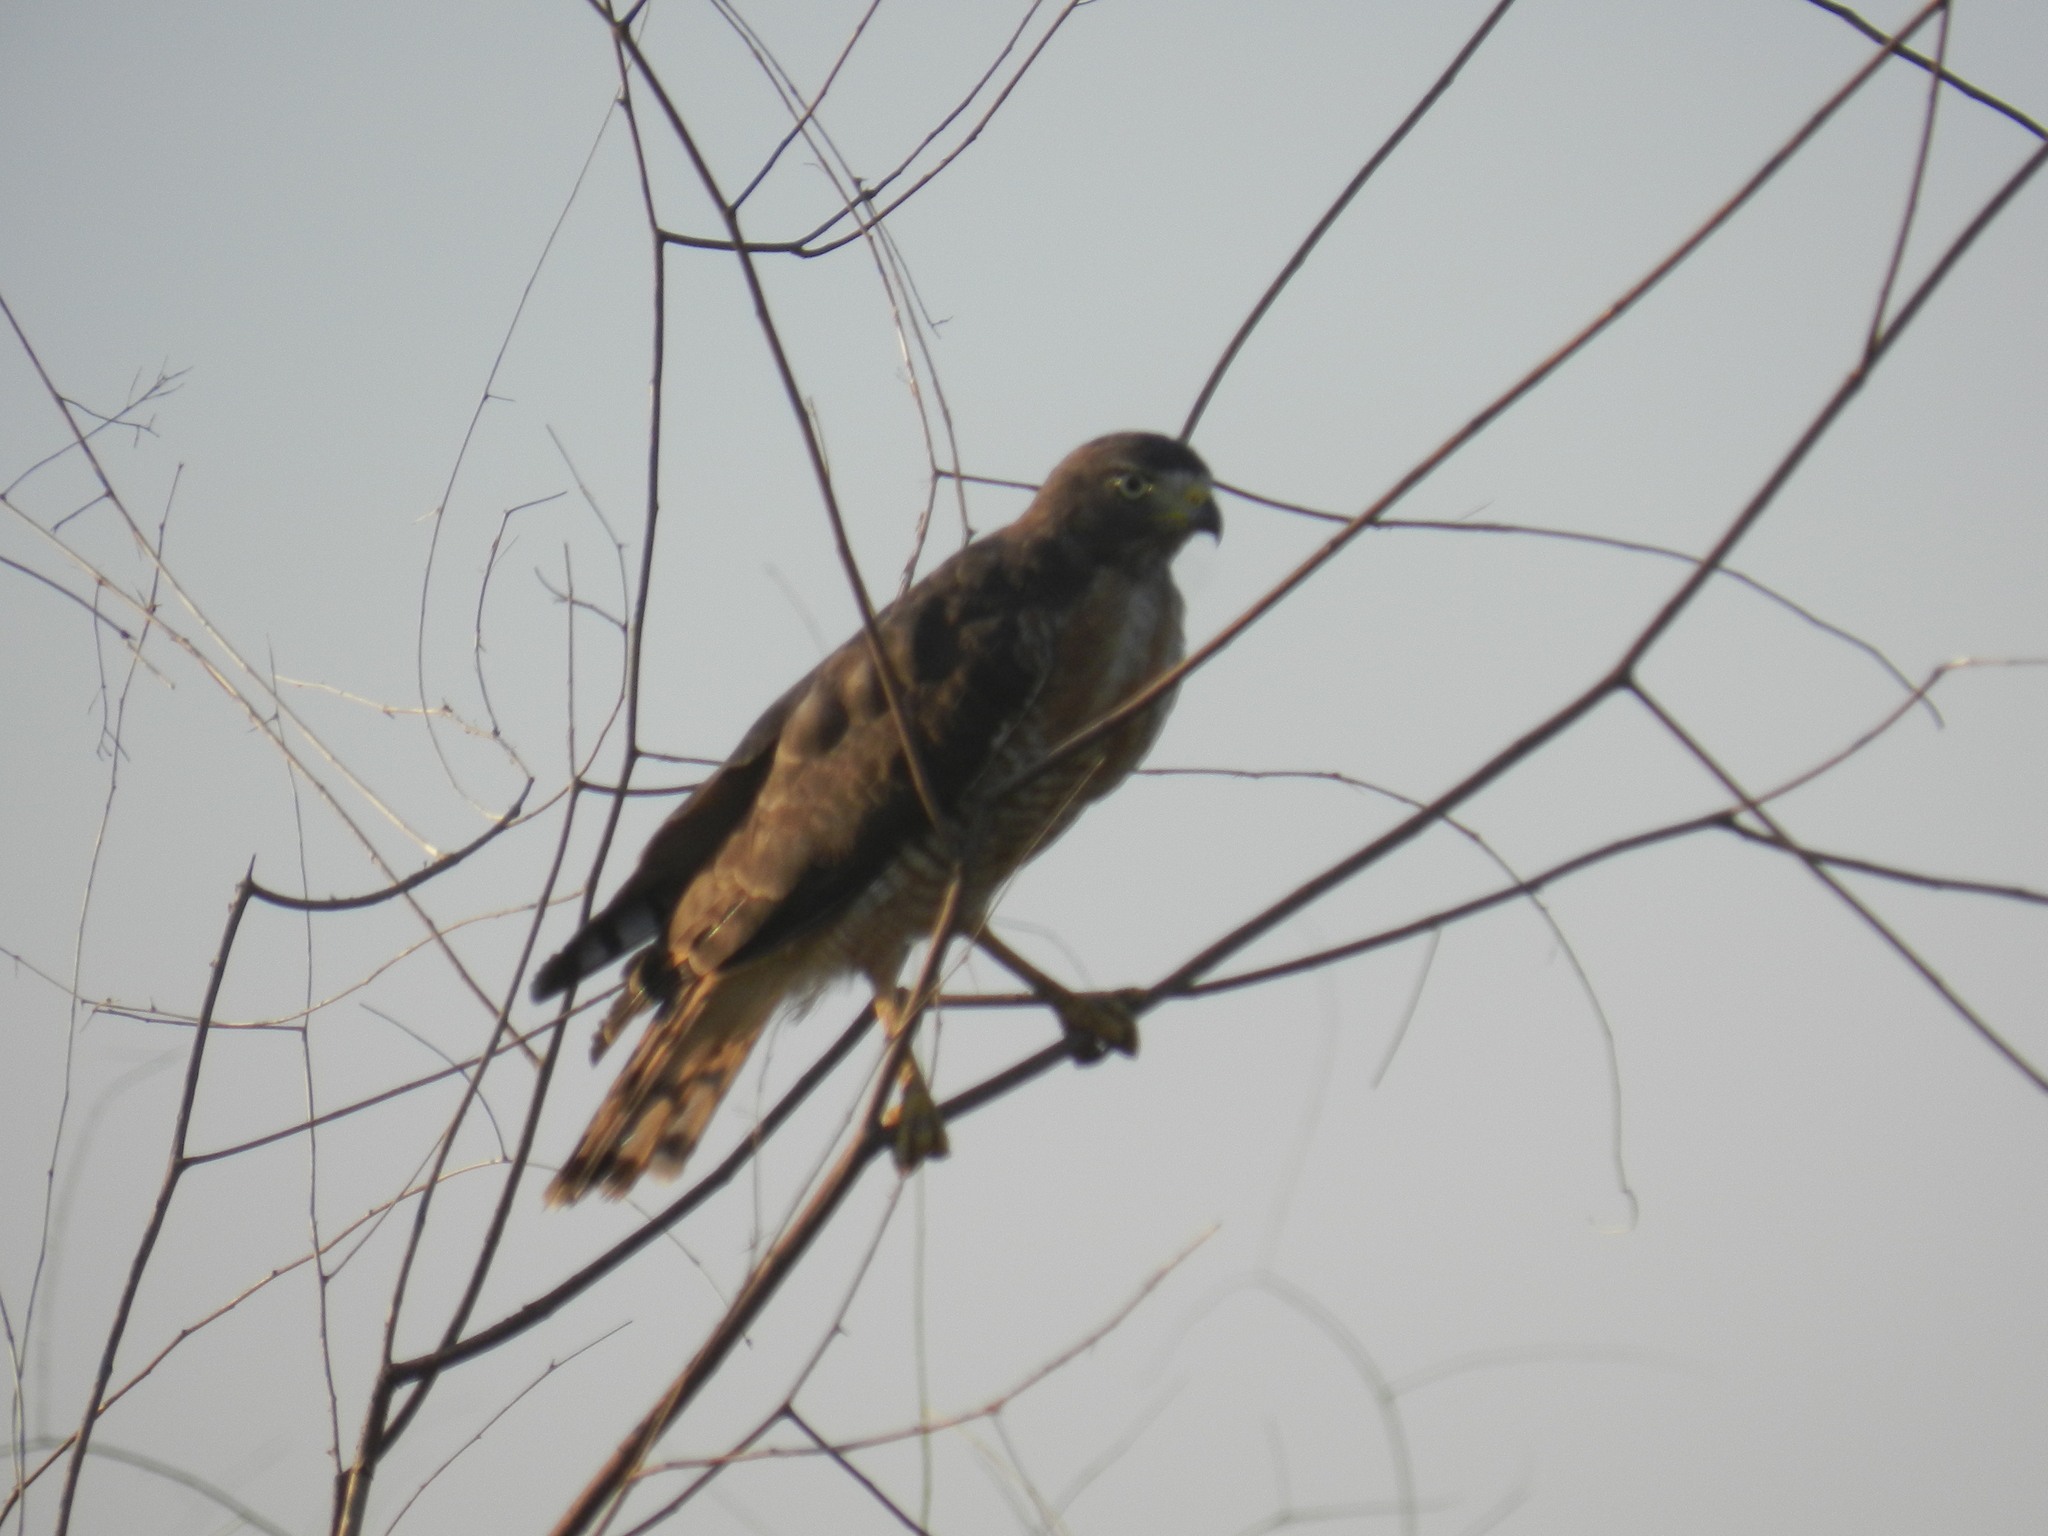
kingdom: Animalia
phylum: Chordata
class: Aves
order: Accipitriformes
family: Accipitridae
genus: Rupornis
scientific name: Rupornis magnirostris
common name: Roadside hawk
